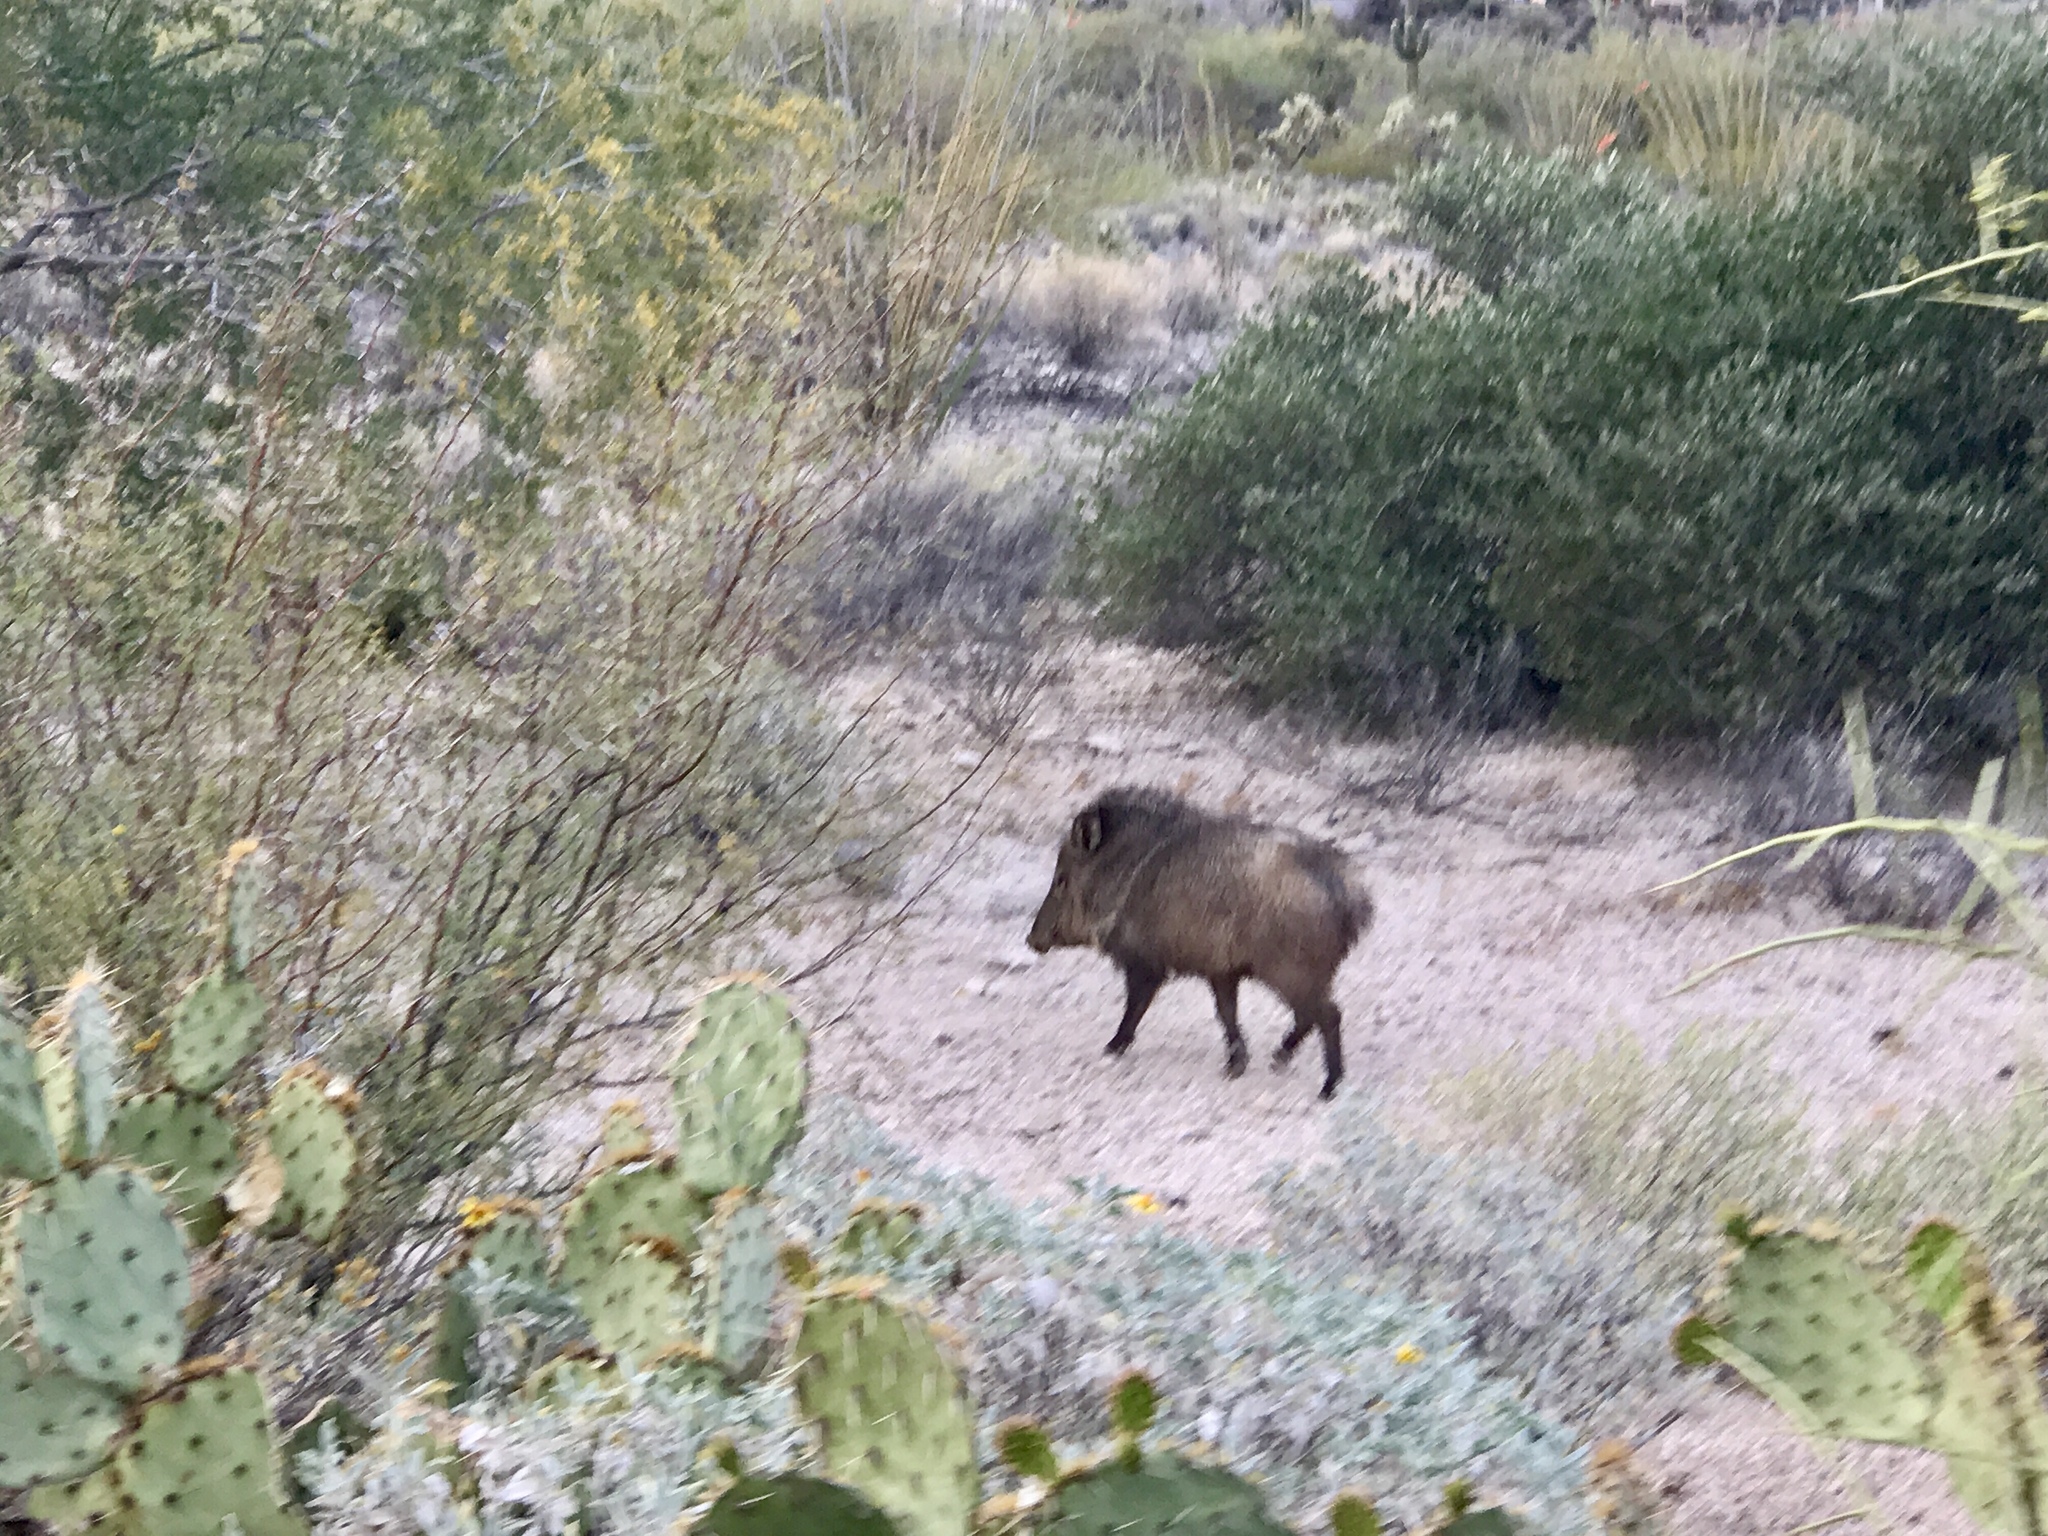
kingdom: Animalia
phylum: Chordata
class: Mammalia
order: Artiodactyla
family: Tayassuidae
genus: Pecari
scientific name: Pecari tajacu
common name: Collared peccary
